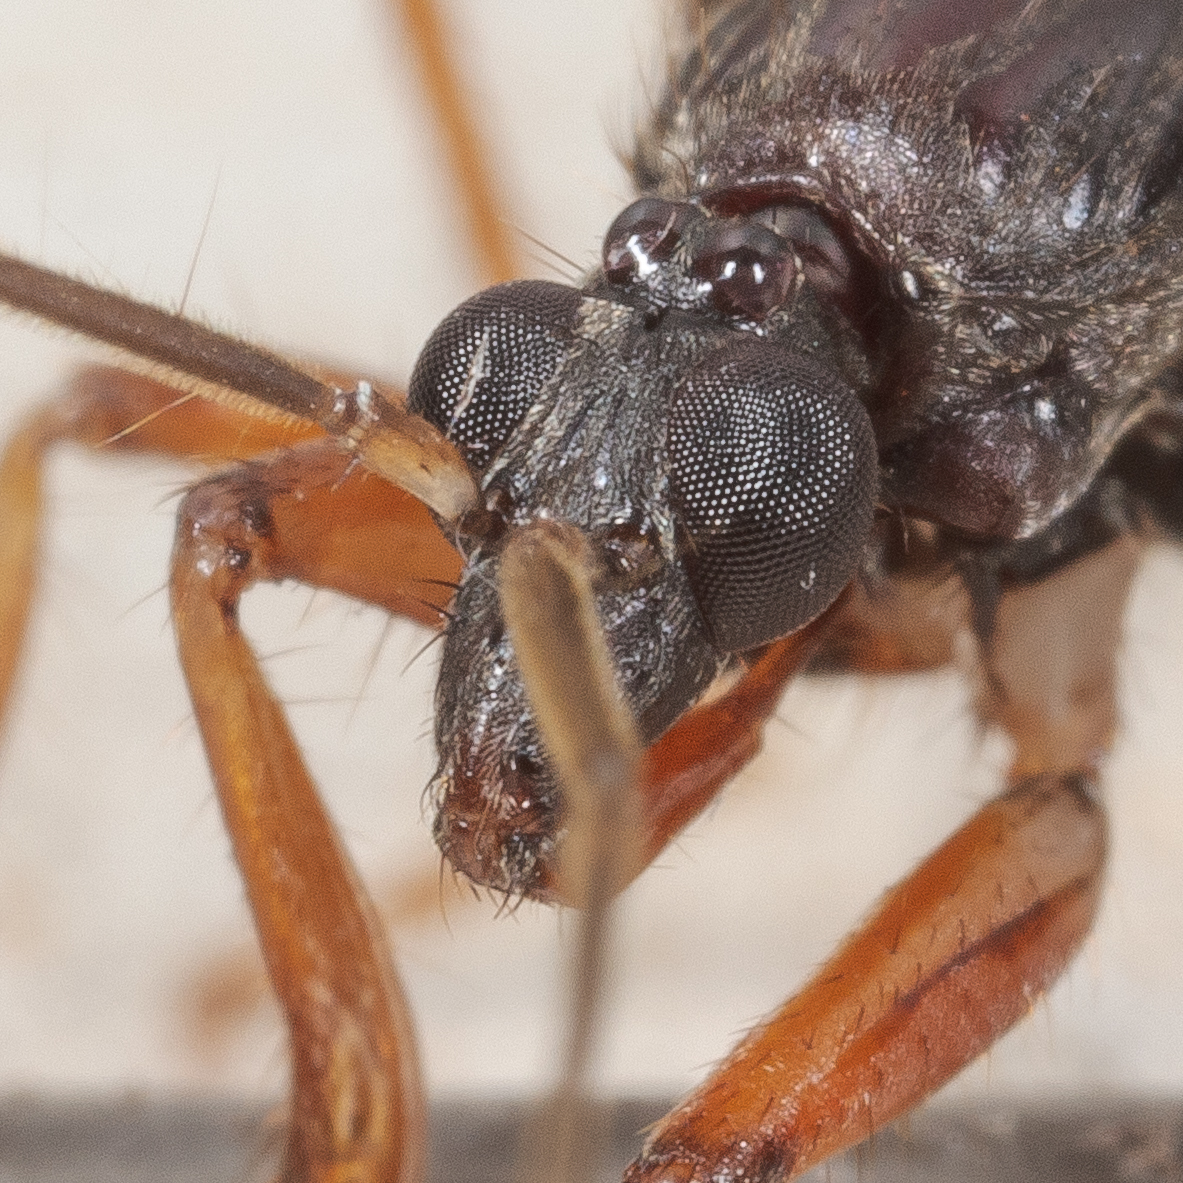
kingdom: Animalia
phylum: Arthropoda
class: Insecta
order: Hemiptera
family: Reduviidae
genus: Rasahus
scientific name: Rasahus hamatus
